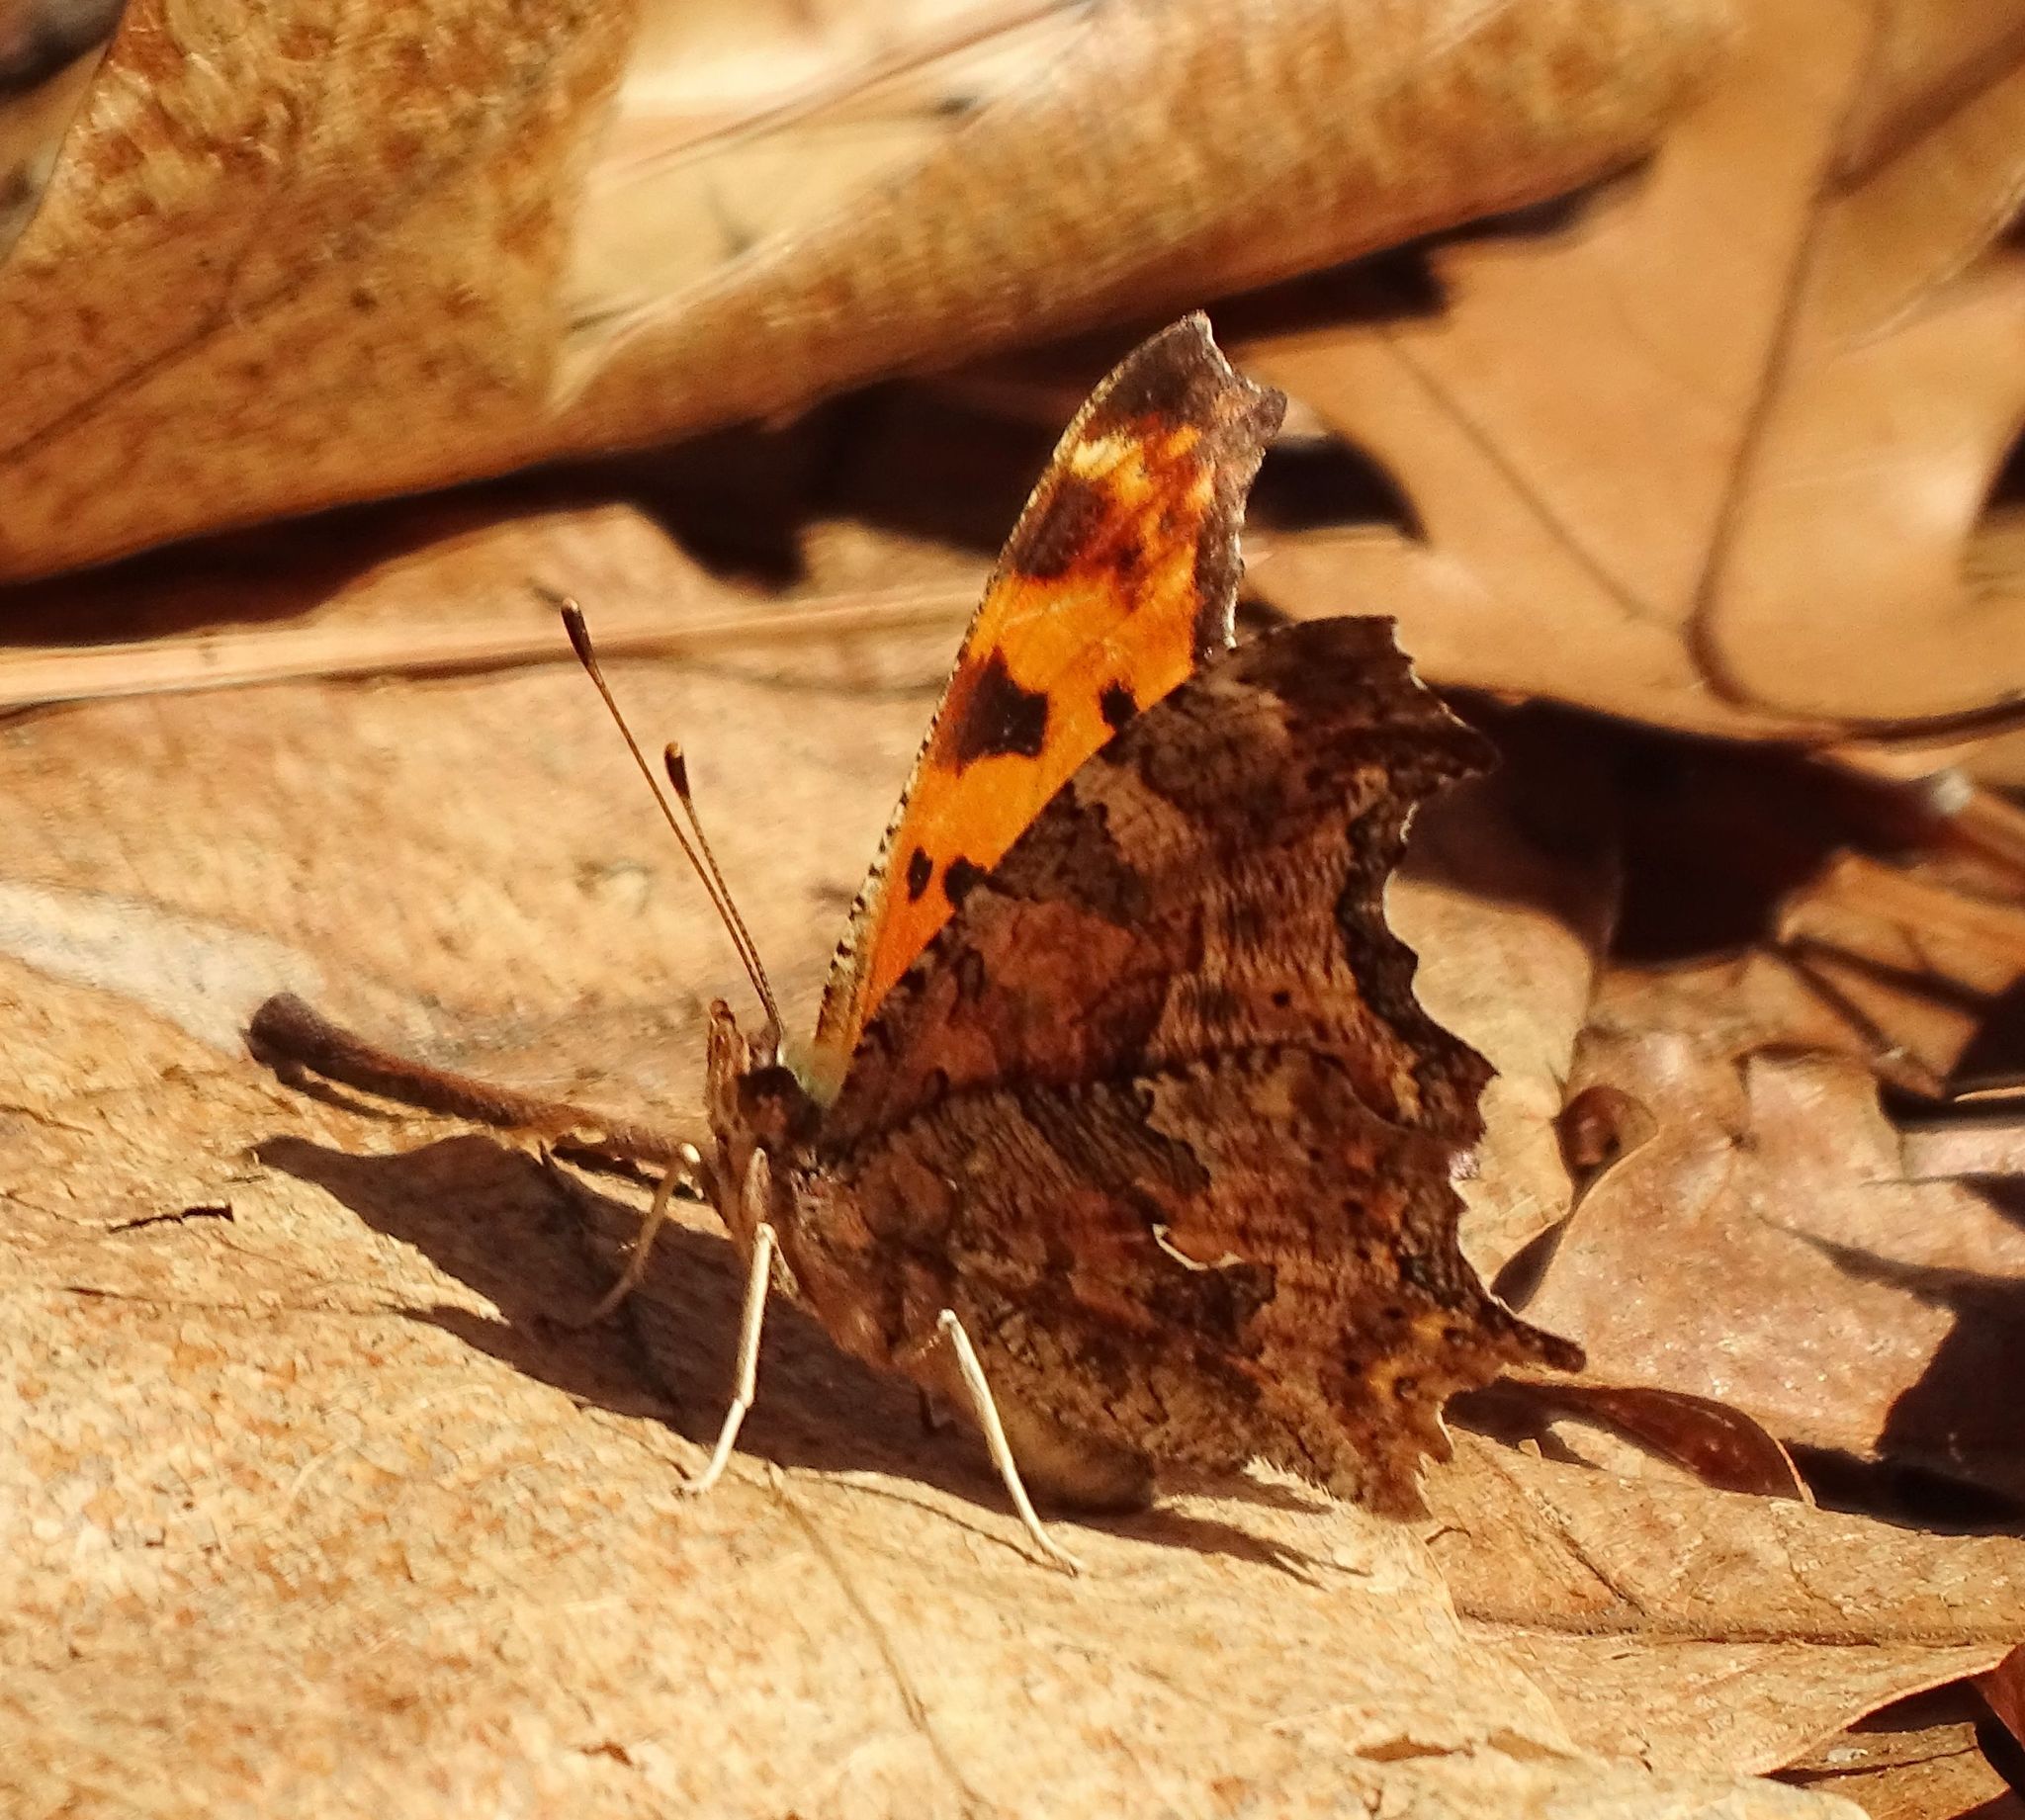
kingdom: Animalia
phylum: Arthropoda
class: Insecta
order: Lepidoptera
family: Nymphalidae
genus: Polygonia
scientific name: Polygonia comma
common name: Eastern comma
